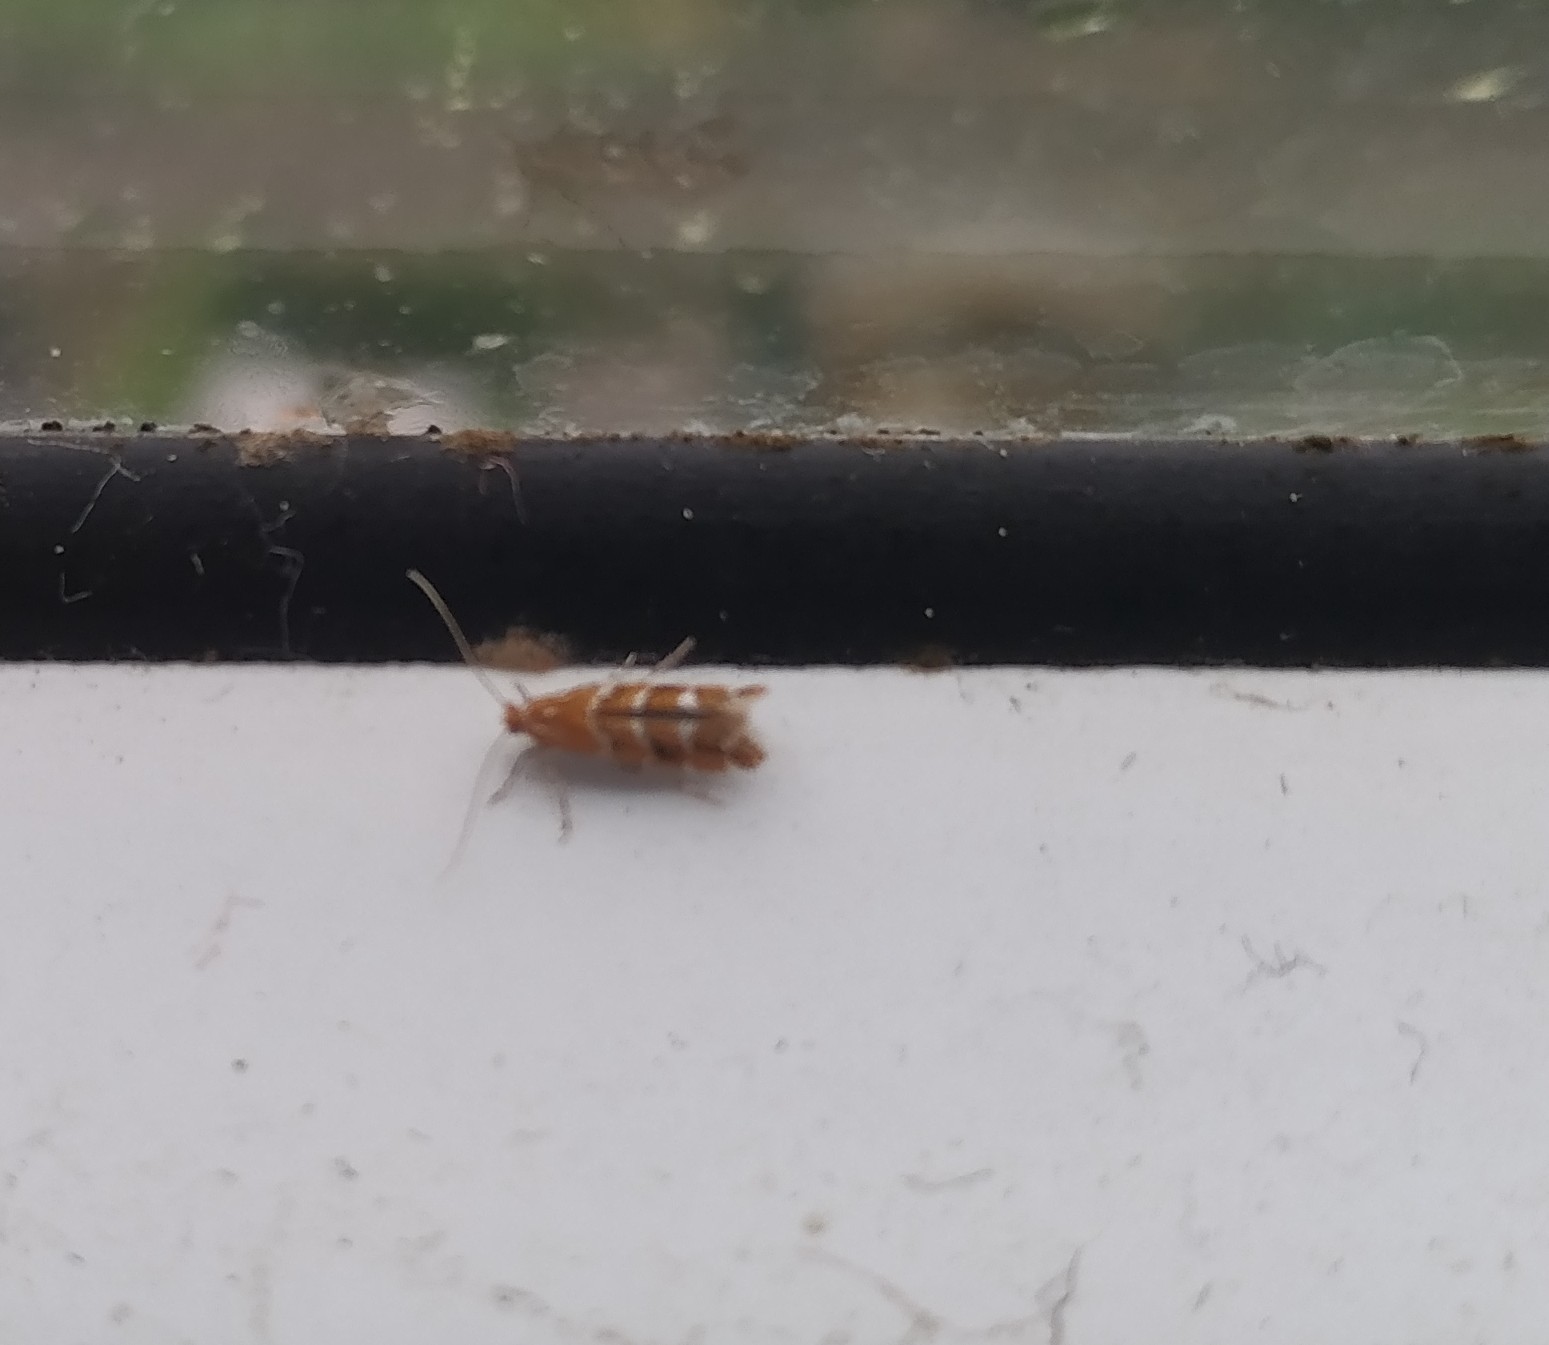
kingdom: Animalia
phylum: Arthropoda
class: Insecta
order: Lepidoptera
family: Gracillariidae
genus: Cameraria
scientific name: Cameraria ohridella
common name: Horse-chestnut leaf-miner
